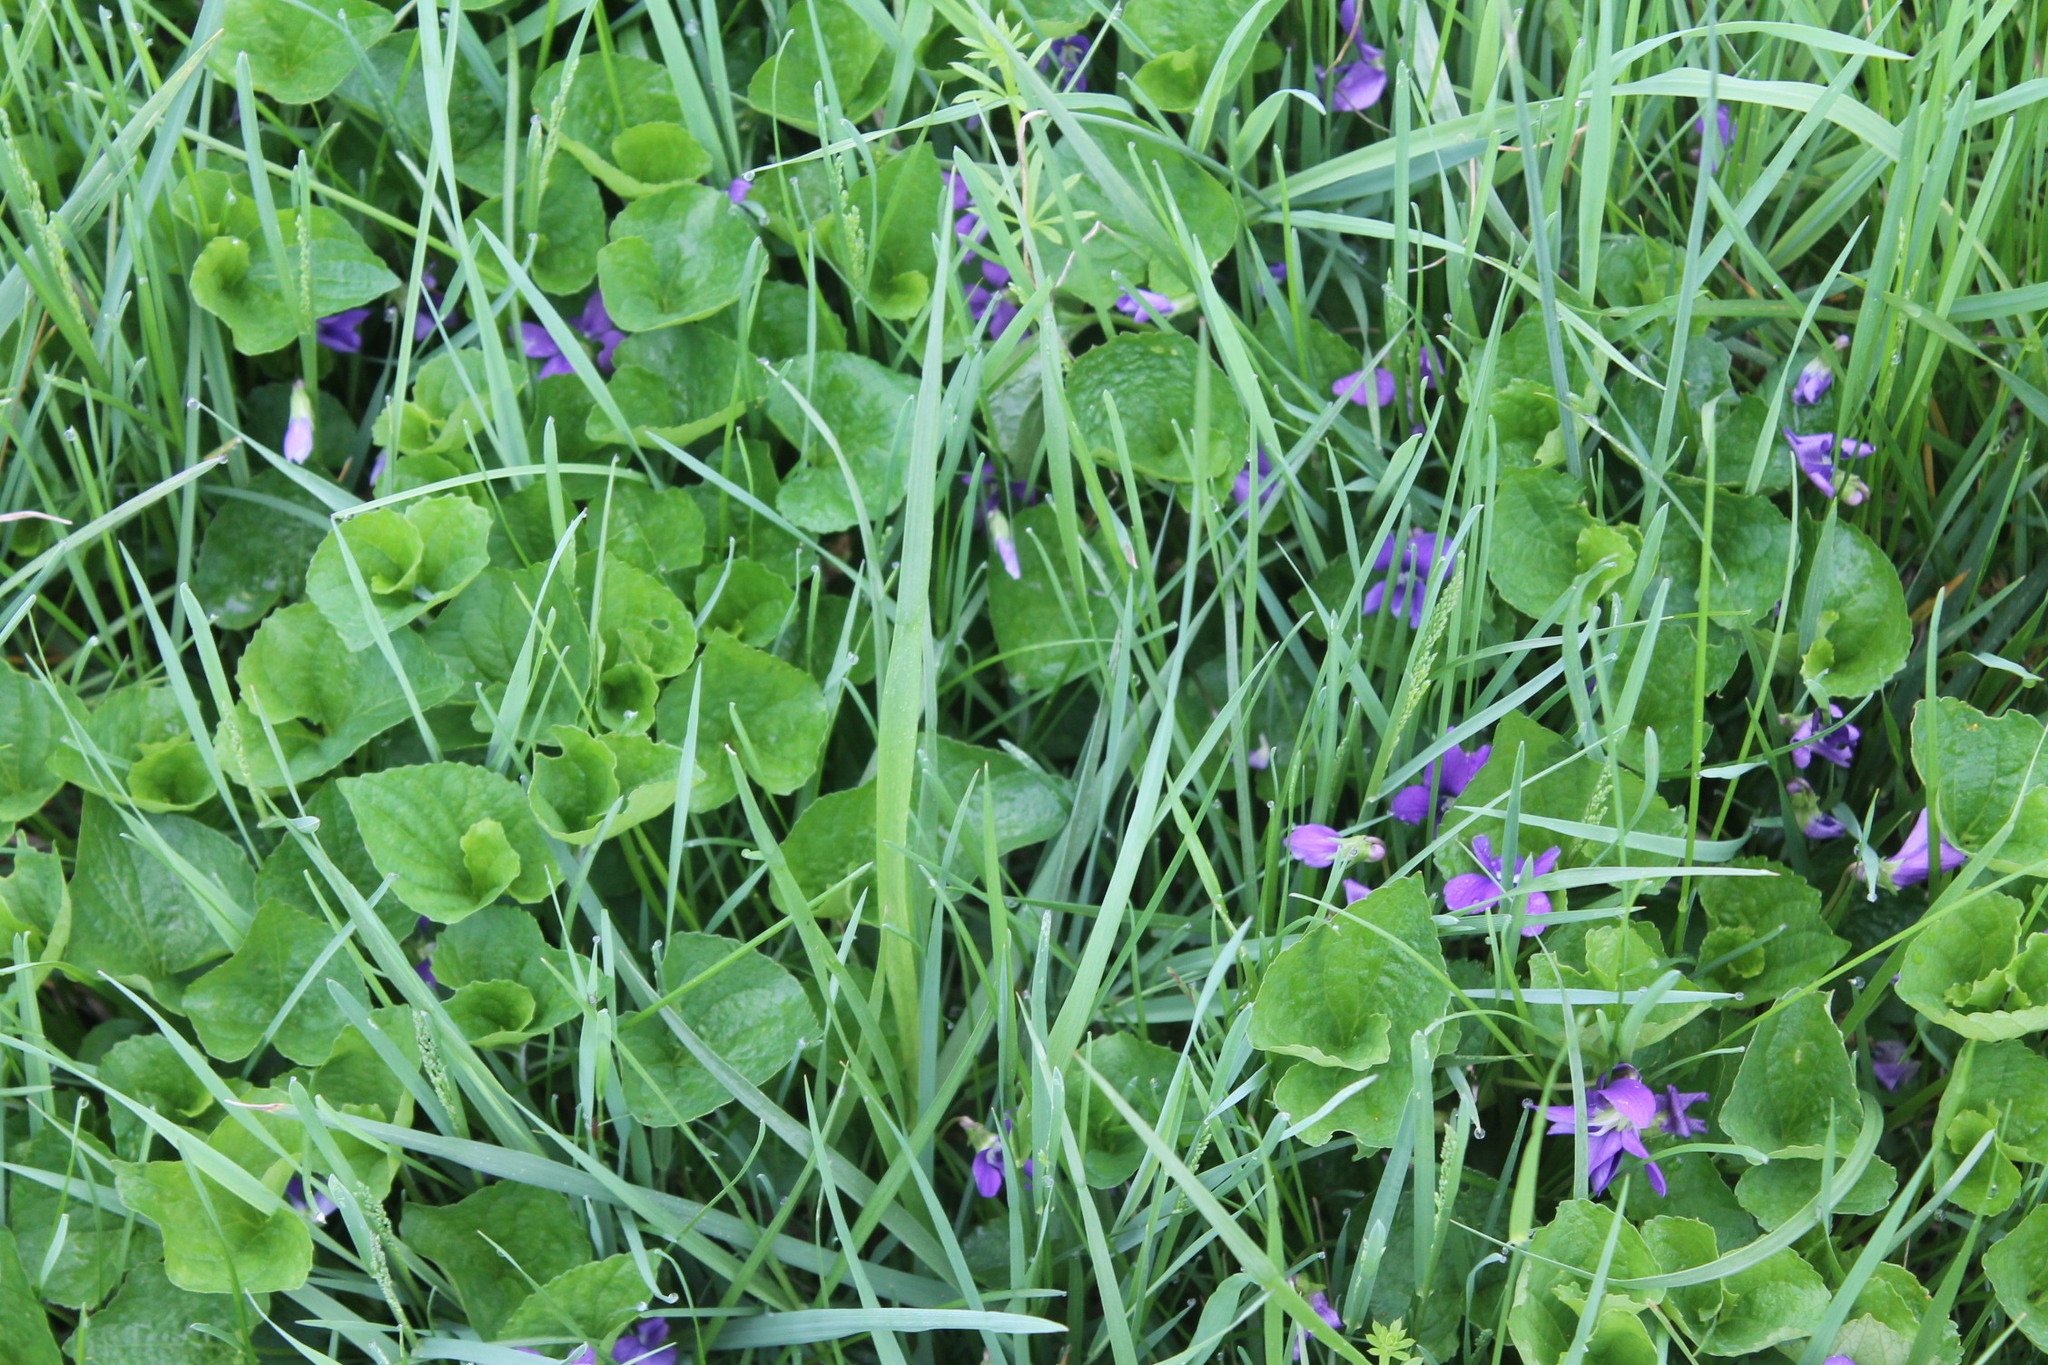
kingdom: Plantae
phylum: Tracheophyta
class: Magnoliopsida
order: Malpighiales
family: Violaceae
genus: Viola
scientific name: Viola sororia
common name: Dooryard violet
